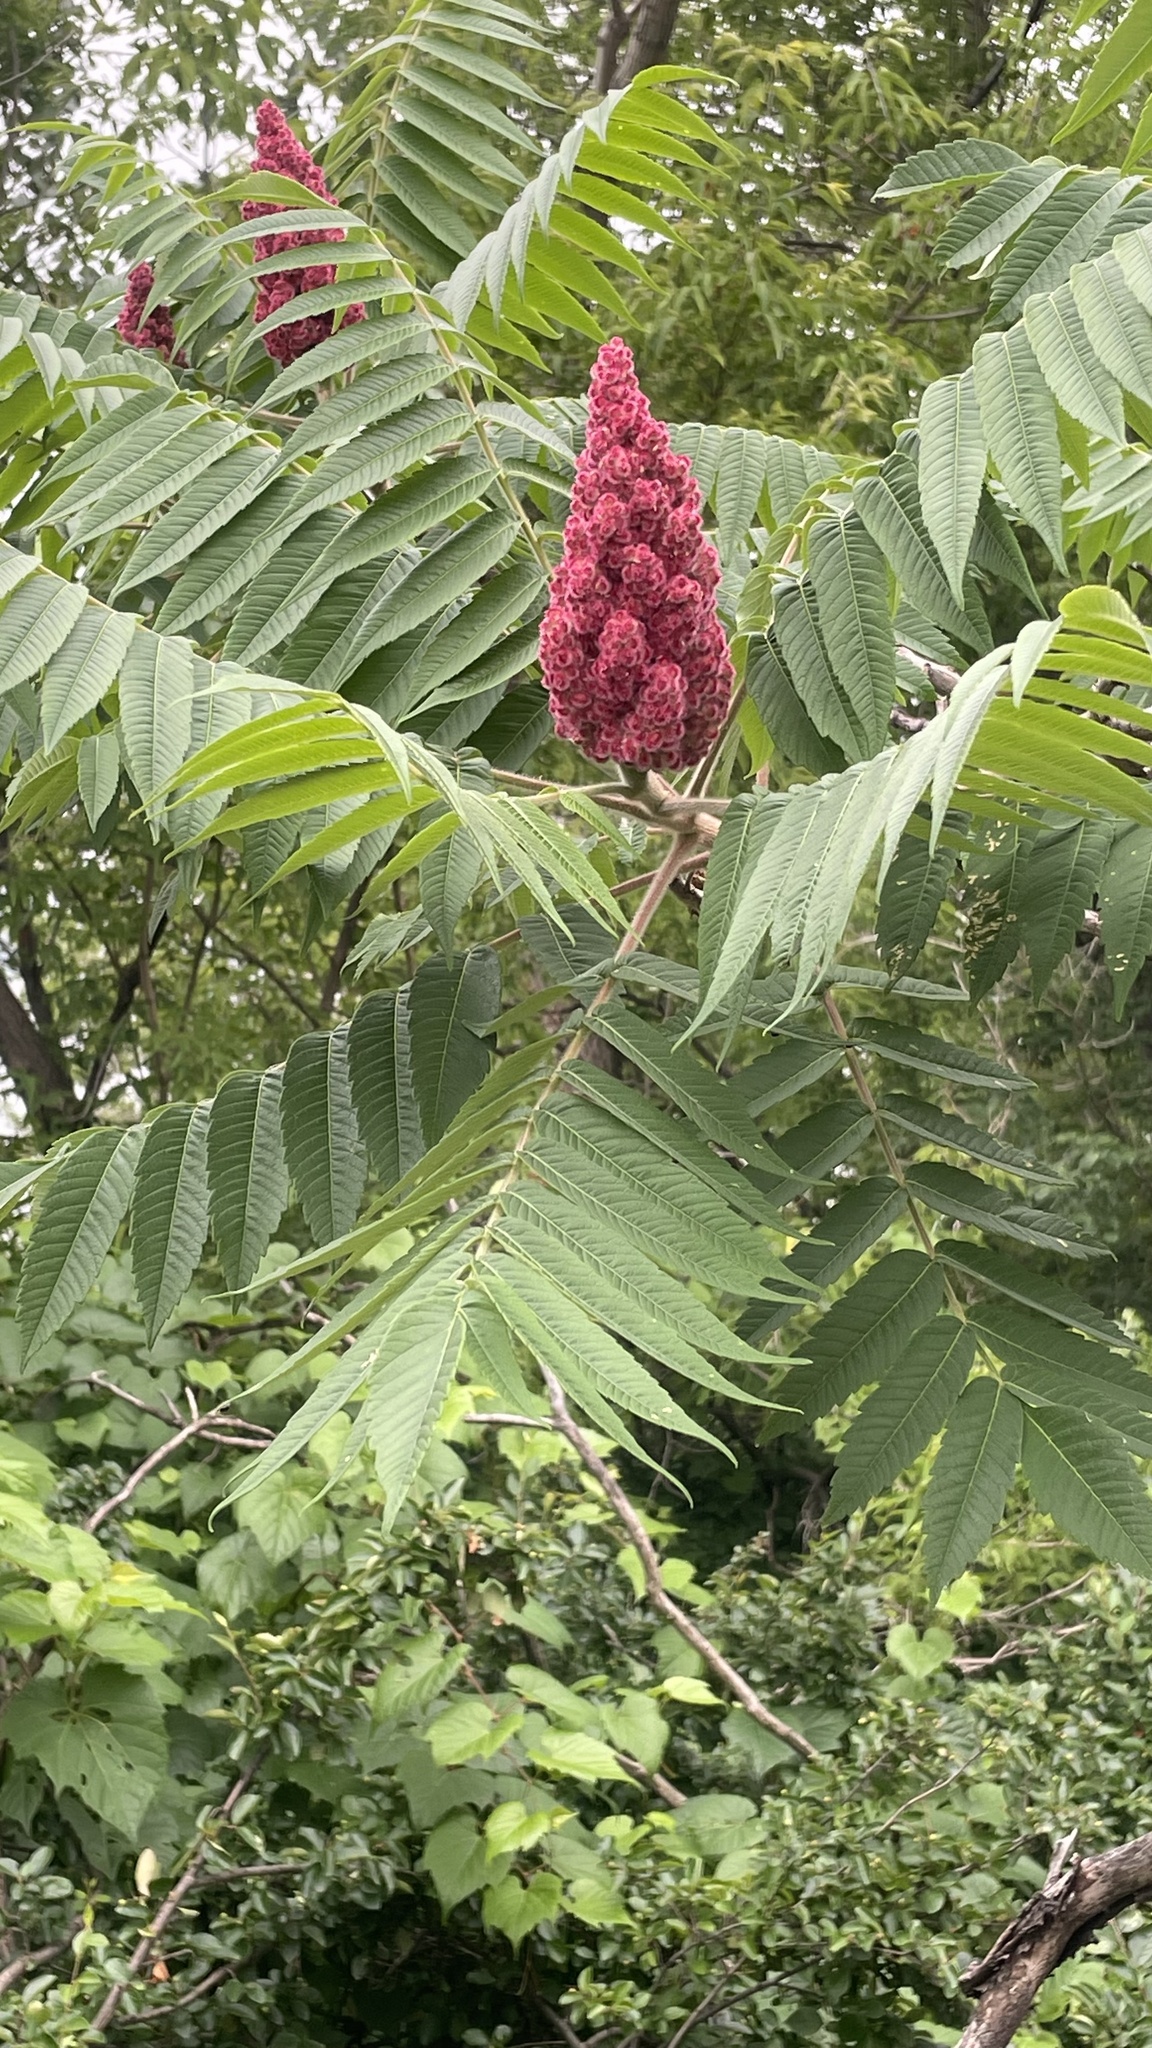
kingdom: Plantae
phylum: Tracheophyta
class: Magnoliopsida
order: Sapindales
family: Anacardiaceae
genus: Rhus
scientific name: Rhus typhina
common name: Staghorn sumac
